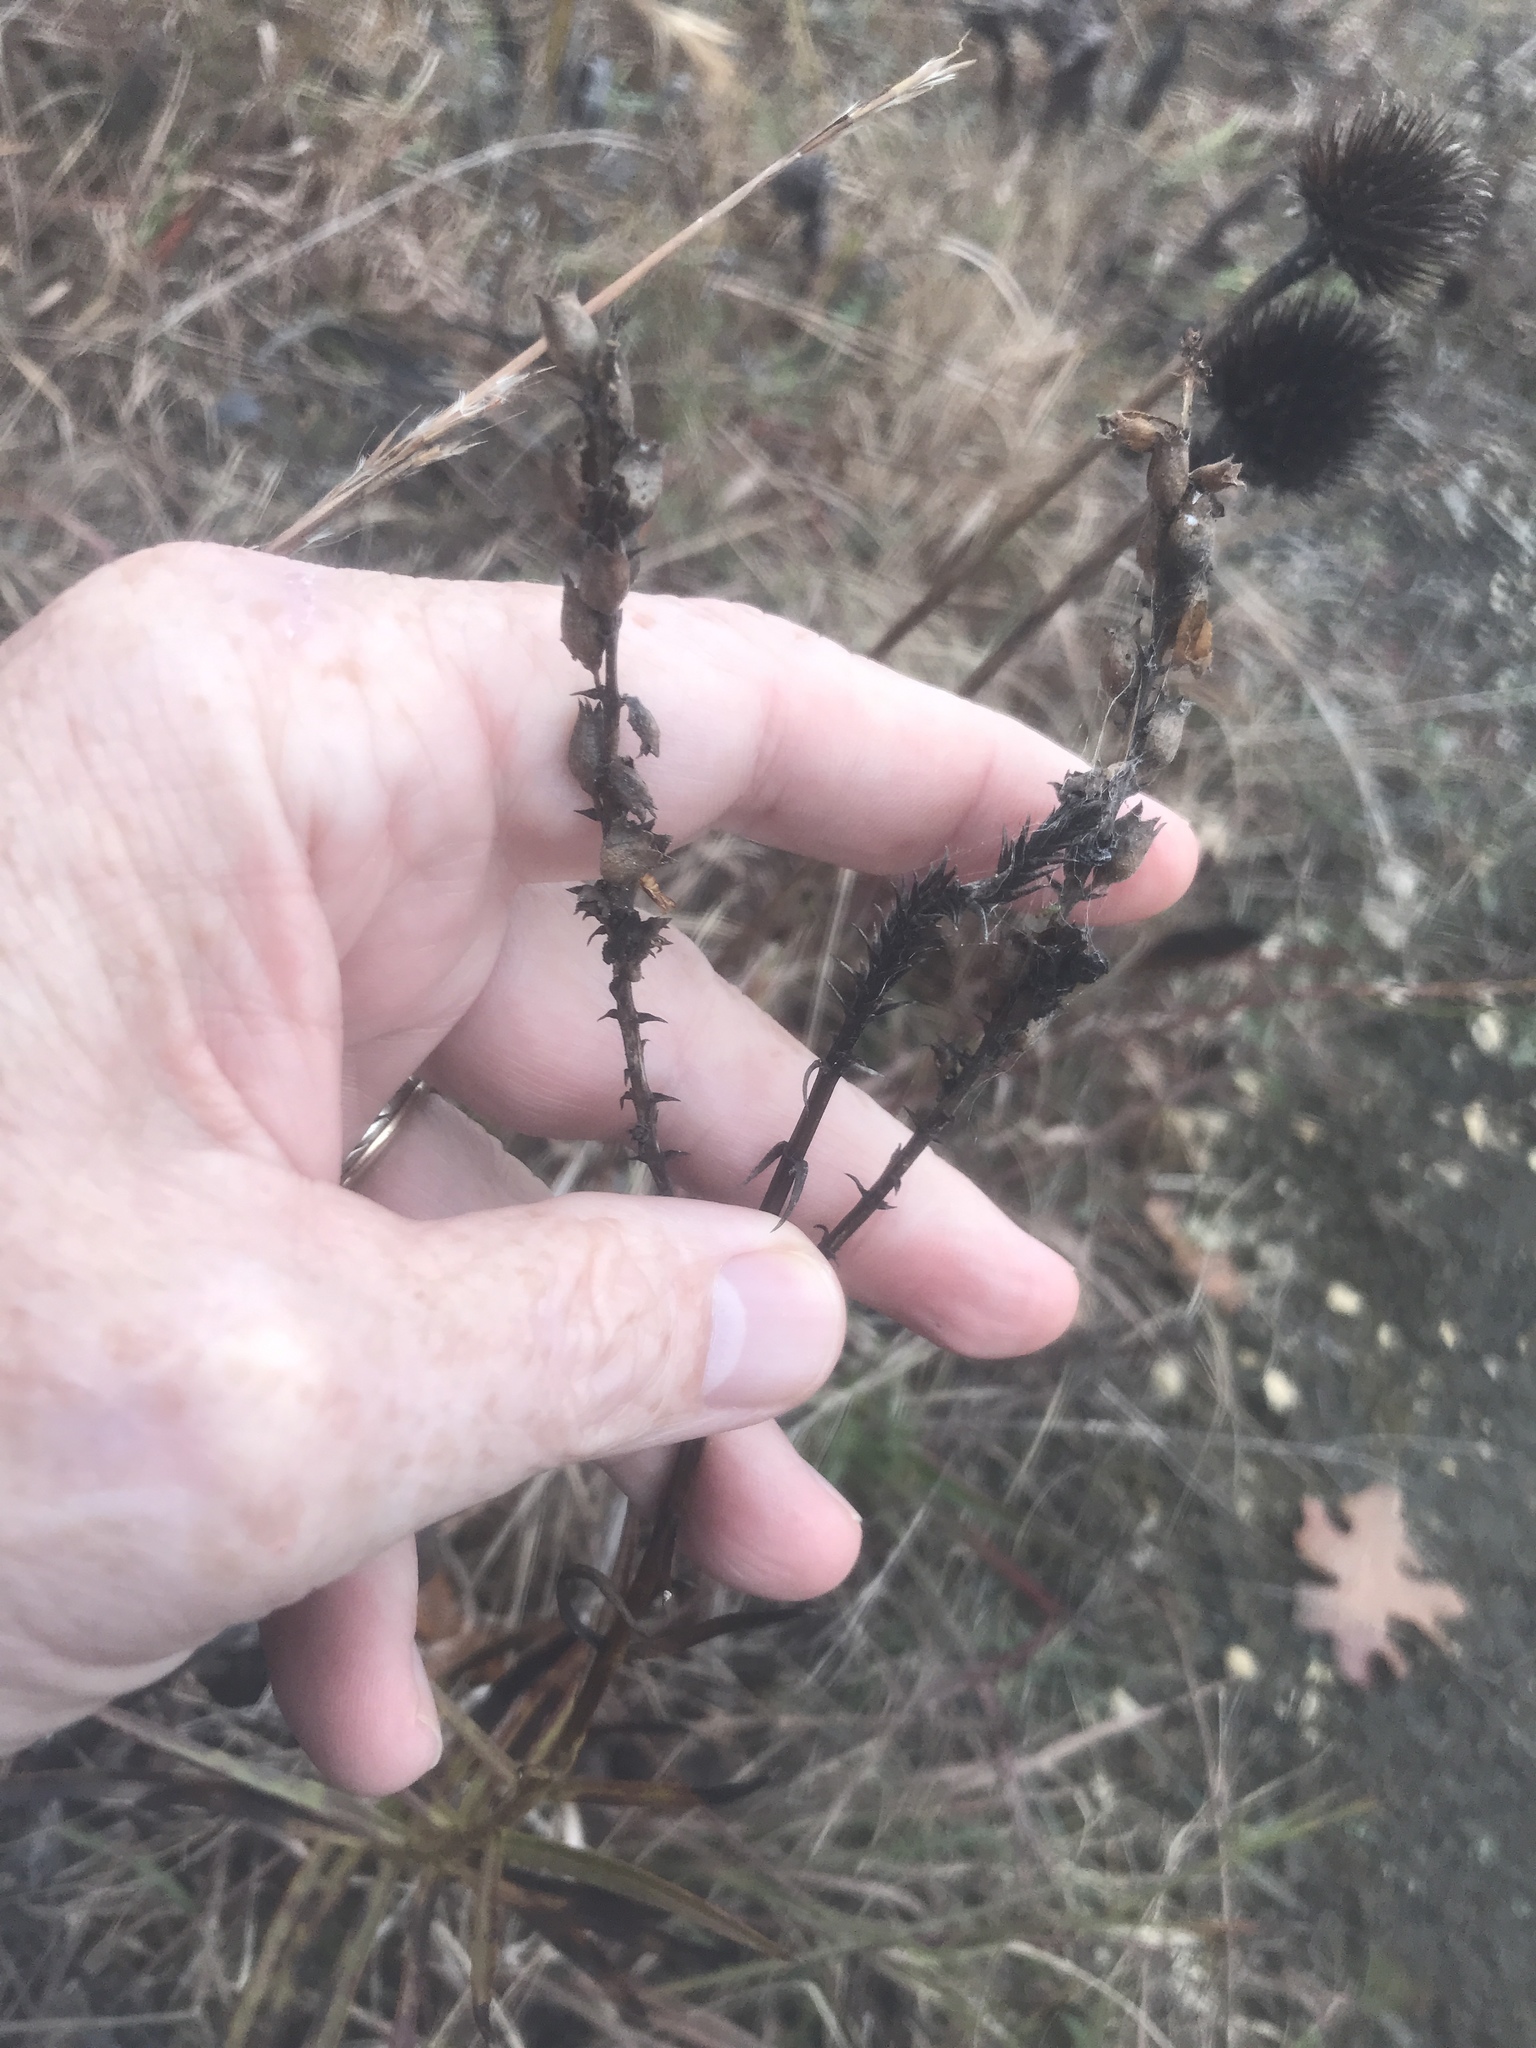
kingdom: Plantae
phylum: Tracheophyta
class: Magnoliopsida
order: Lamiales
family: Lamiaceae
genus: Physostegia
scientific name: Physostegia virginiana
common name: Obedient-plant
